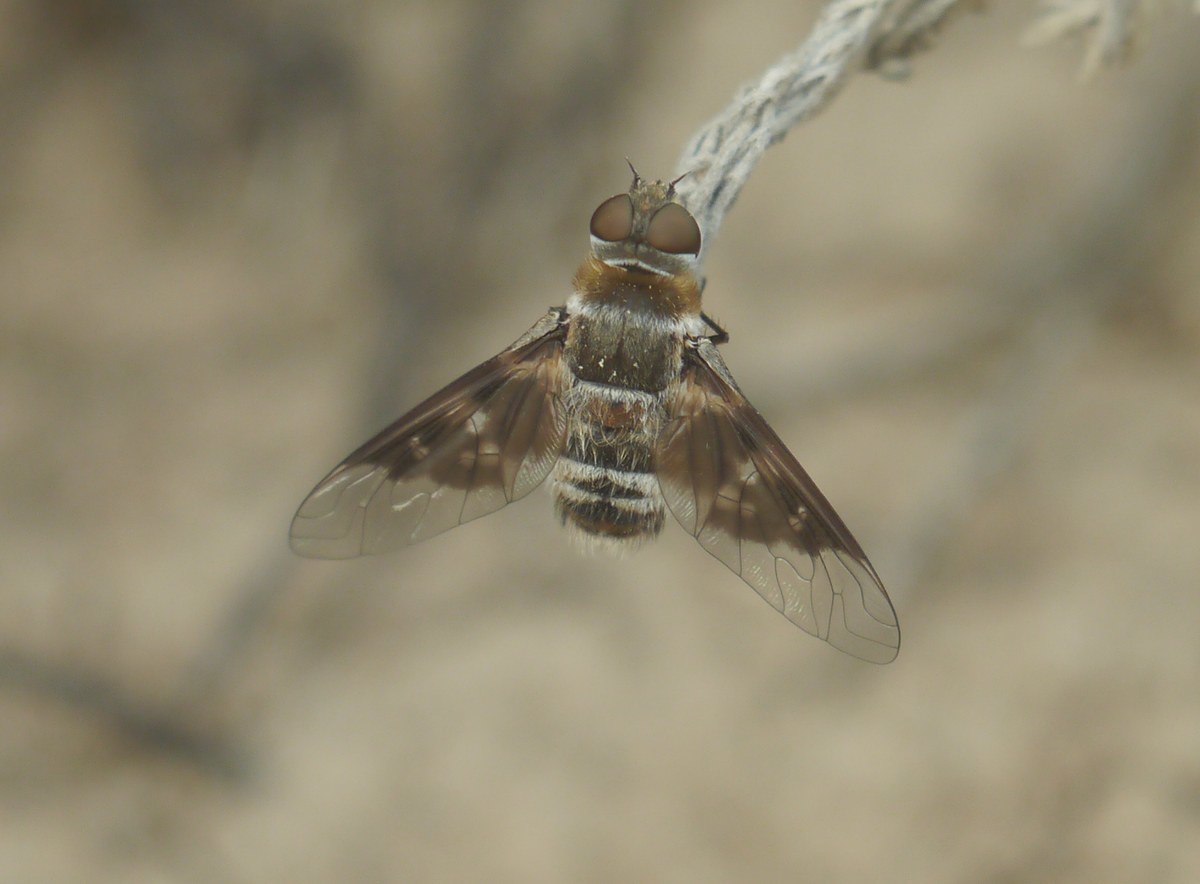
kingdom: Animalia
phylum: Arthropoda
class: Insecta
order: Diptera
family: Bombyliidae
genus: Thyridanthrax
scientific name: Thyridanthrax fenestratus
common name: Mottled bee-fly
